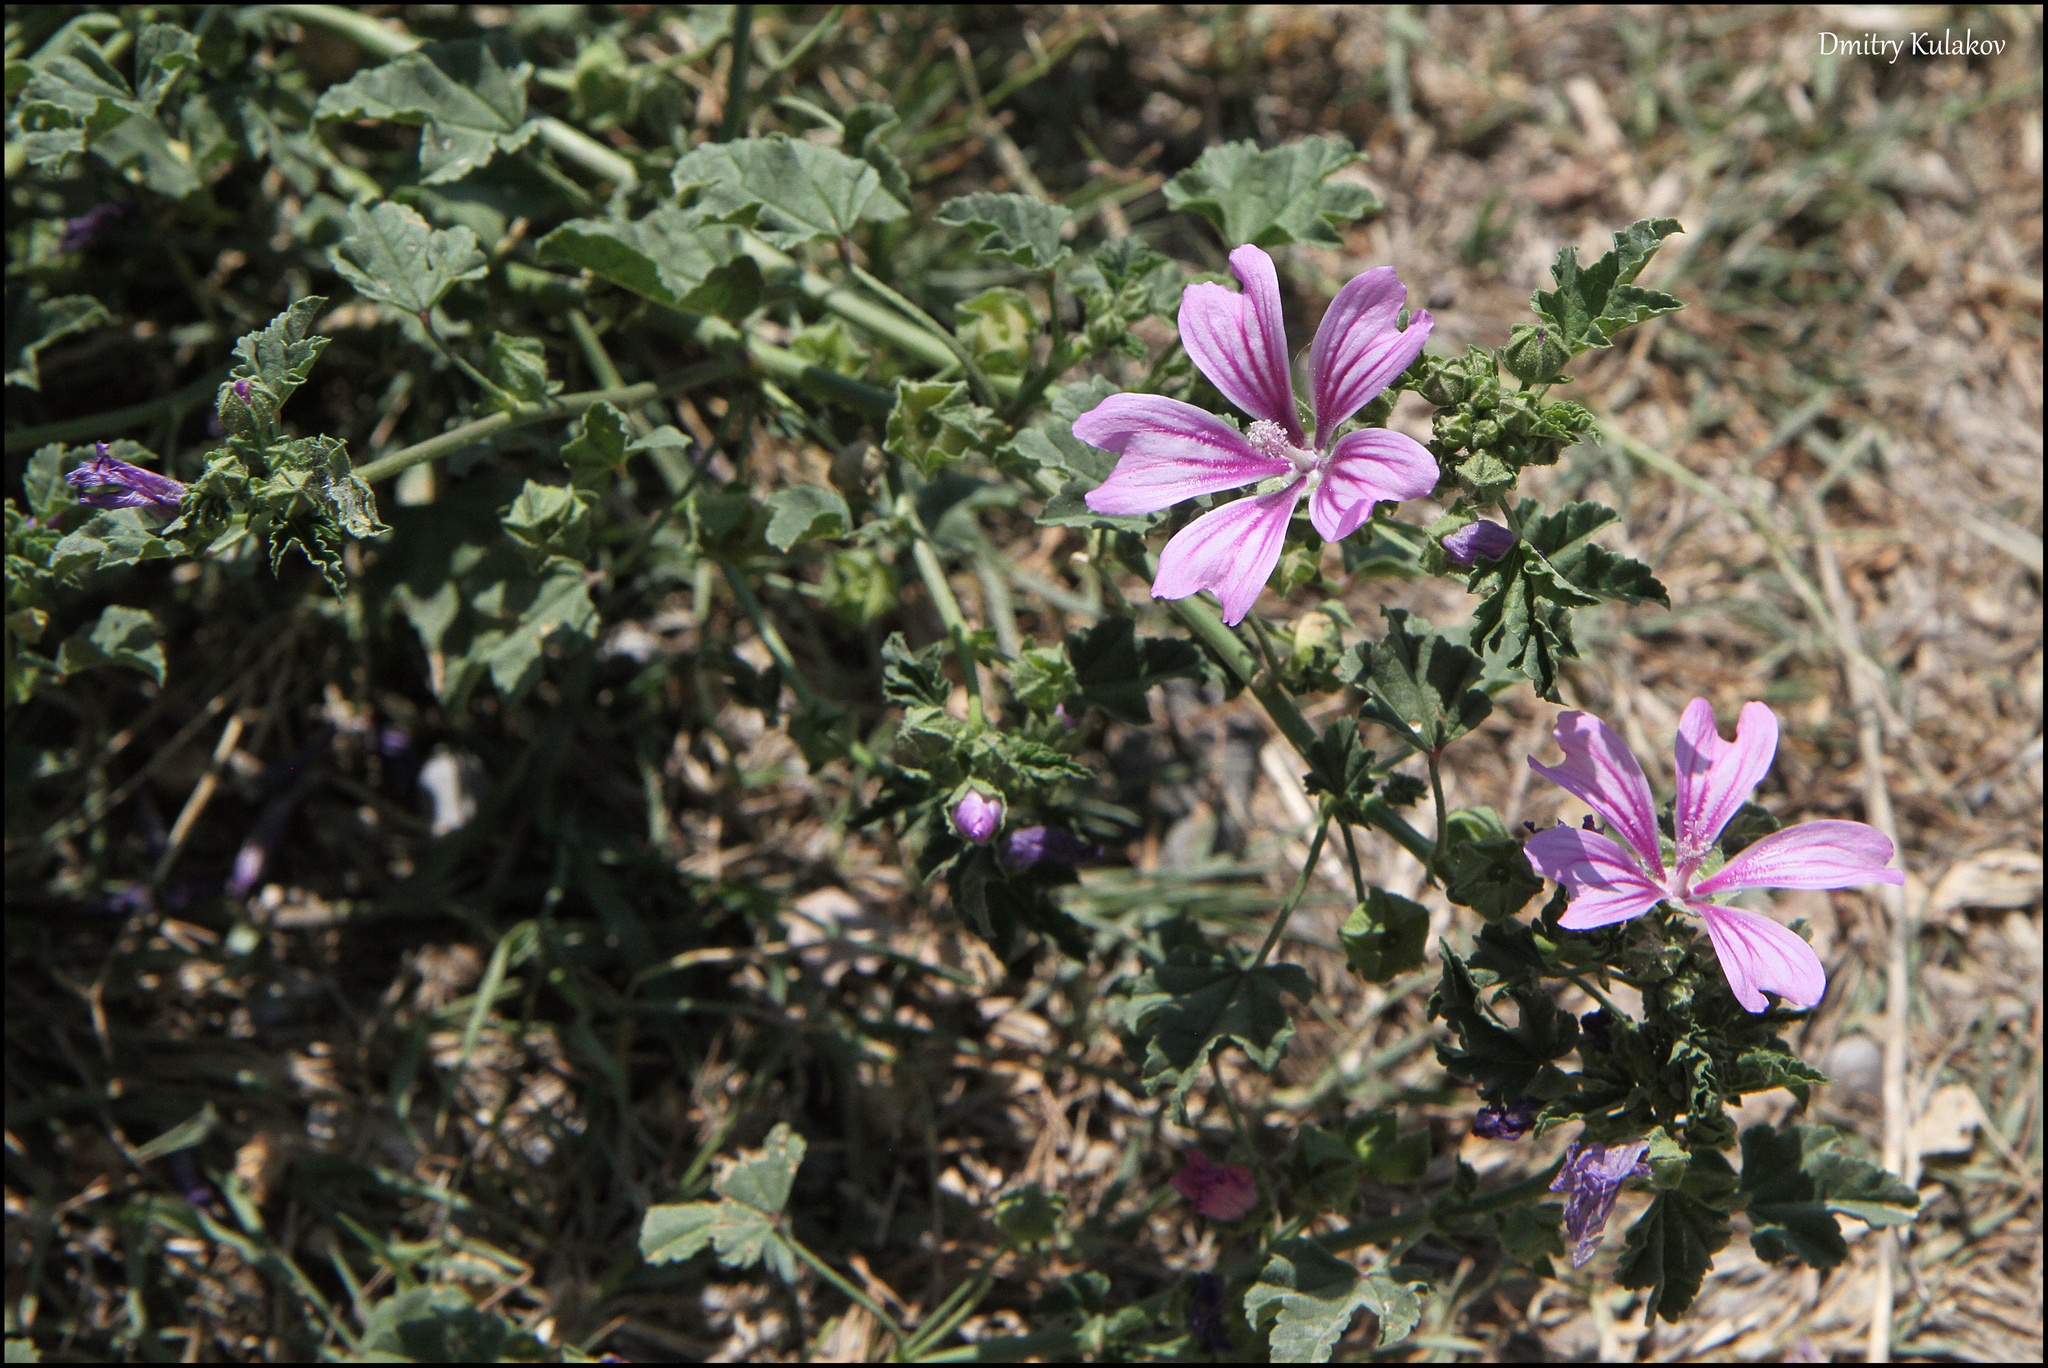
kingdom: Plantae
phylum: Tracheophyta
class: Magnoliopsida
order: Malvales
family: Malvaceae
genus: Malva
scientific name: Malva sylvestris
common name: Common mallow
